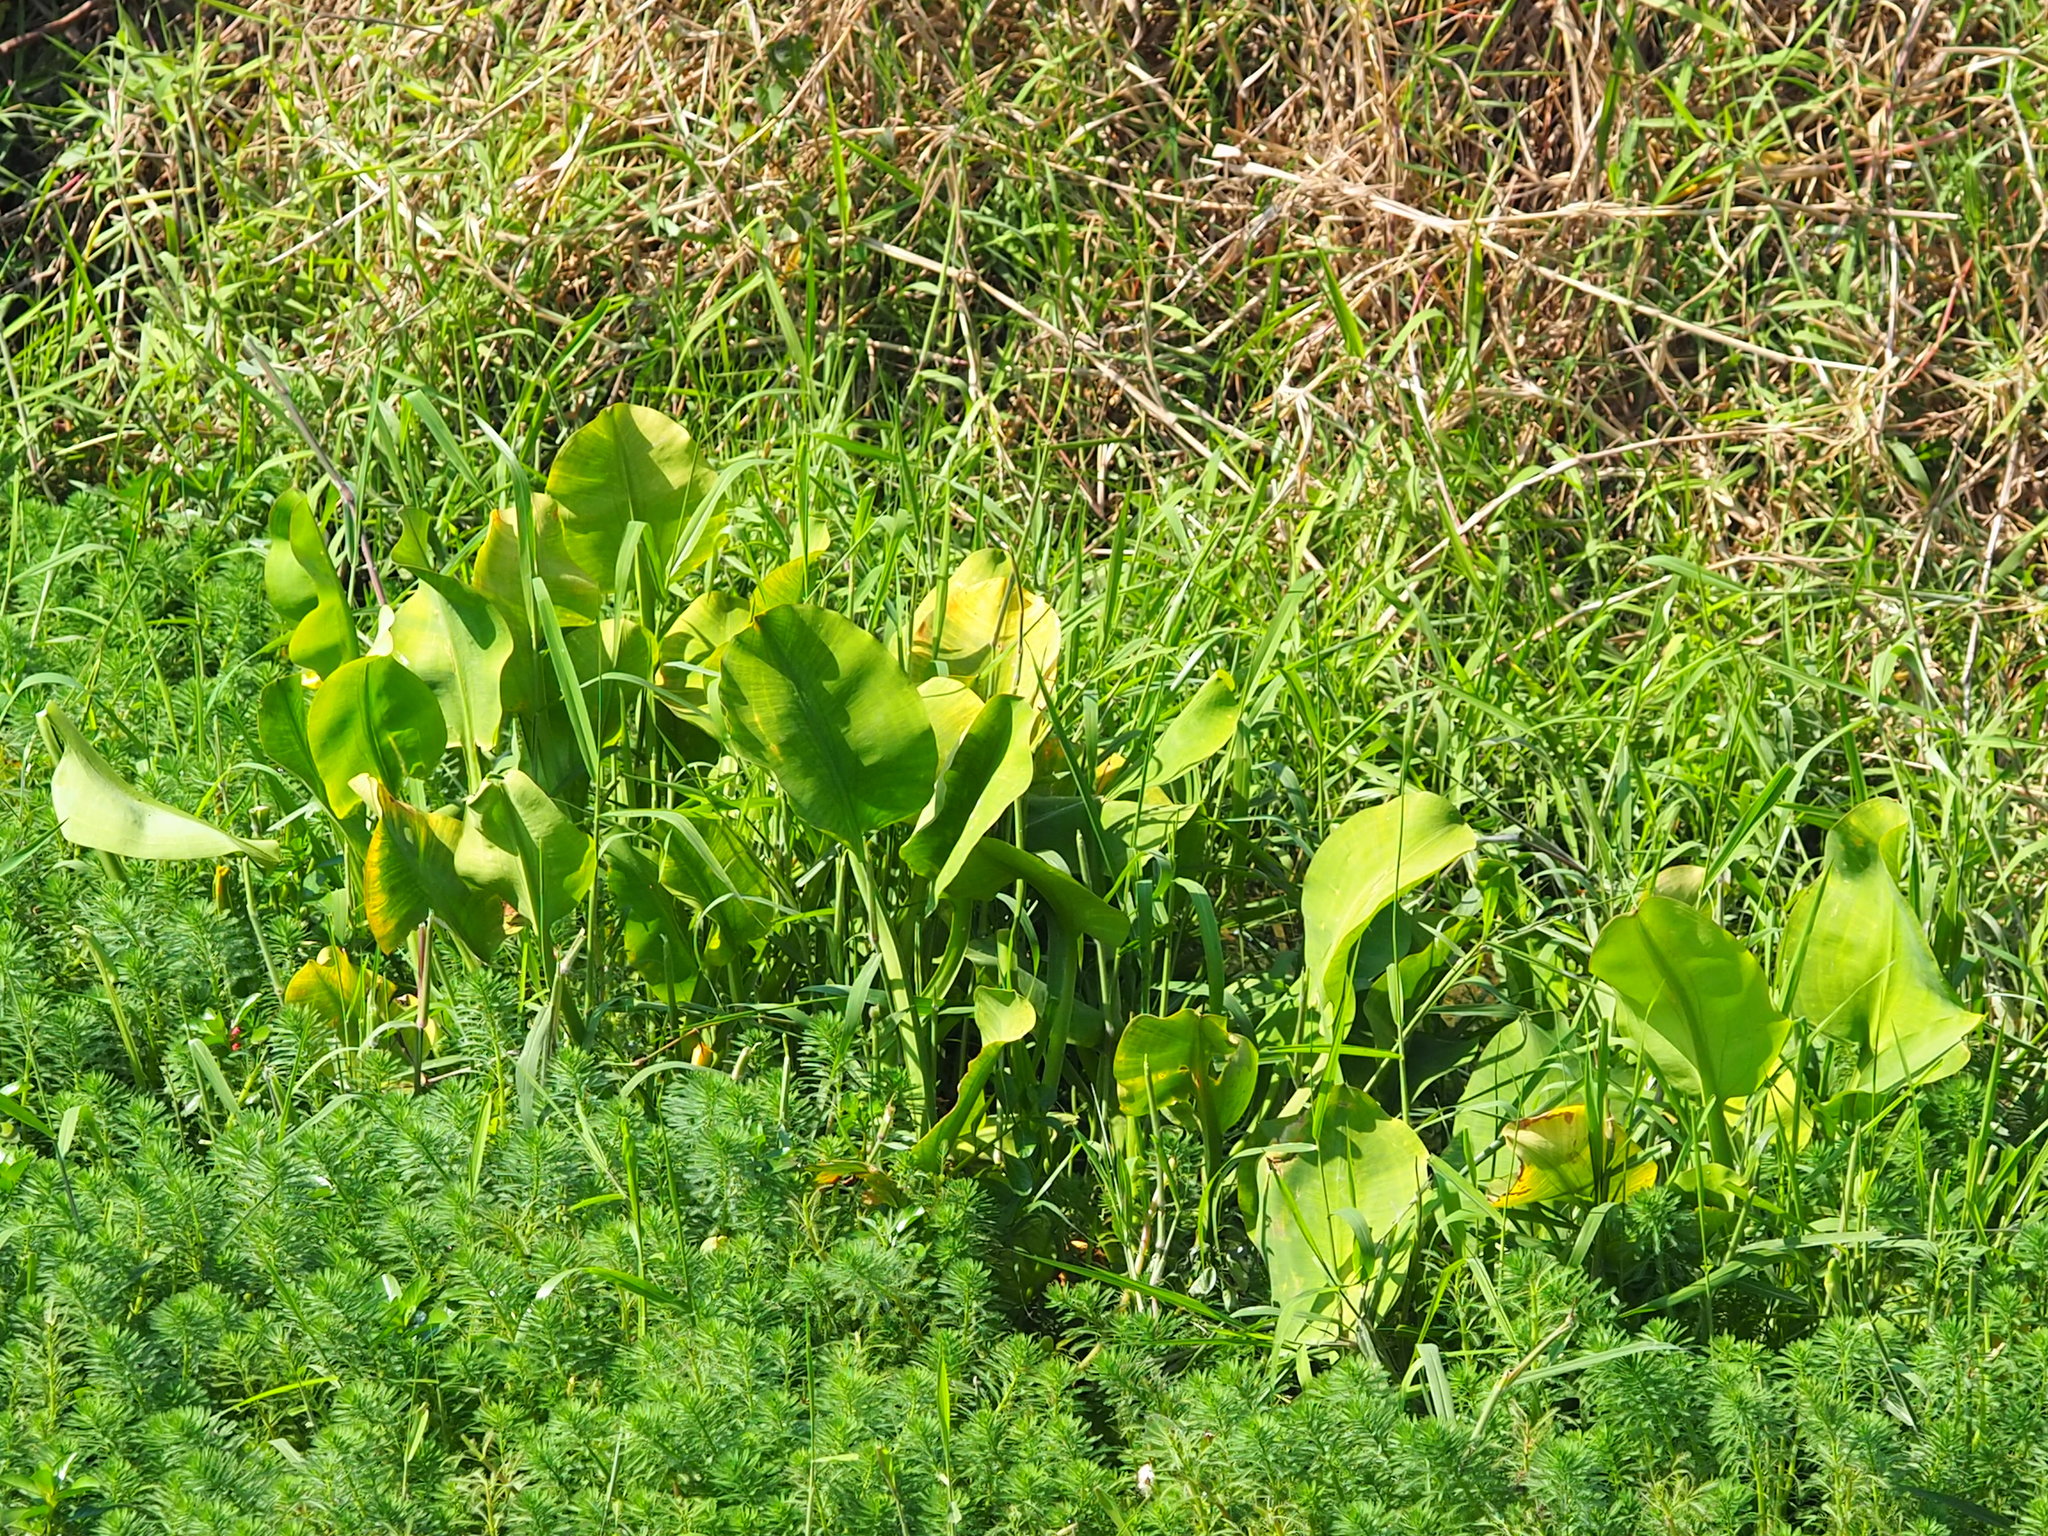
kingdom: Plantae
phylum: Tracheophyta
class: Liliopsida
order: Alismatales
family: Alismataceae
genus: Limnocharis
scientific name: Limnocharis flava
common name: Sawah-flower-rush
